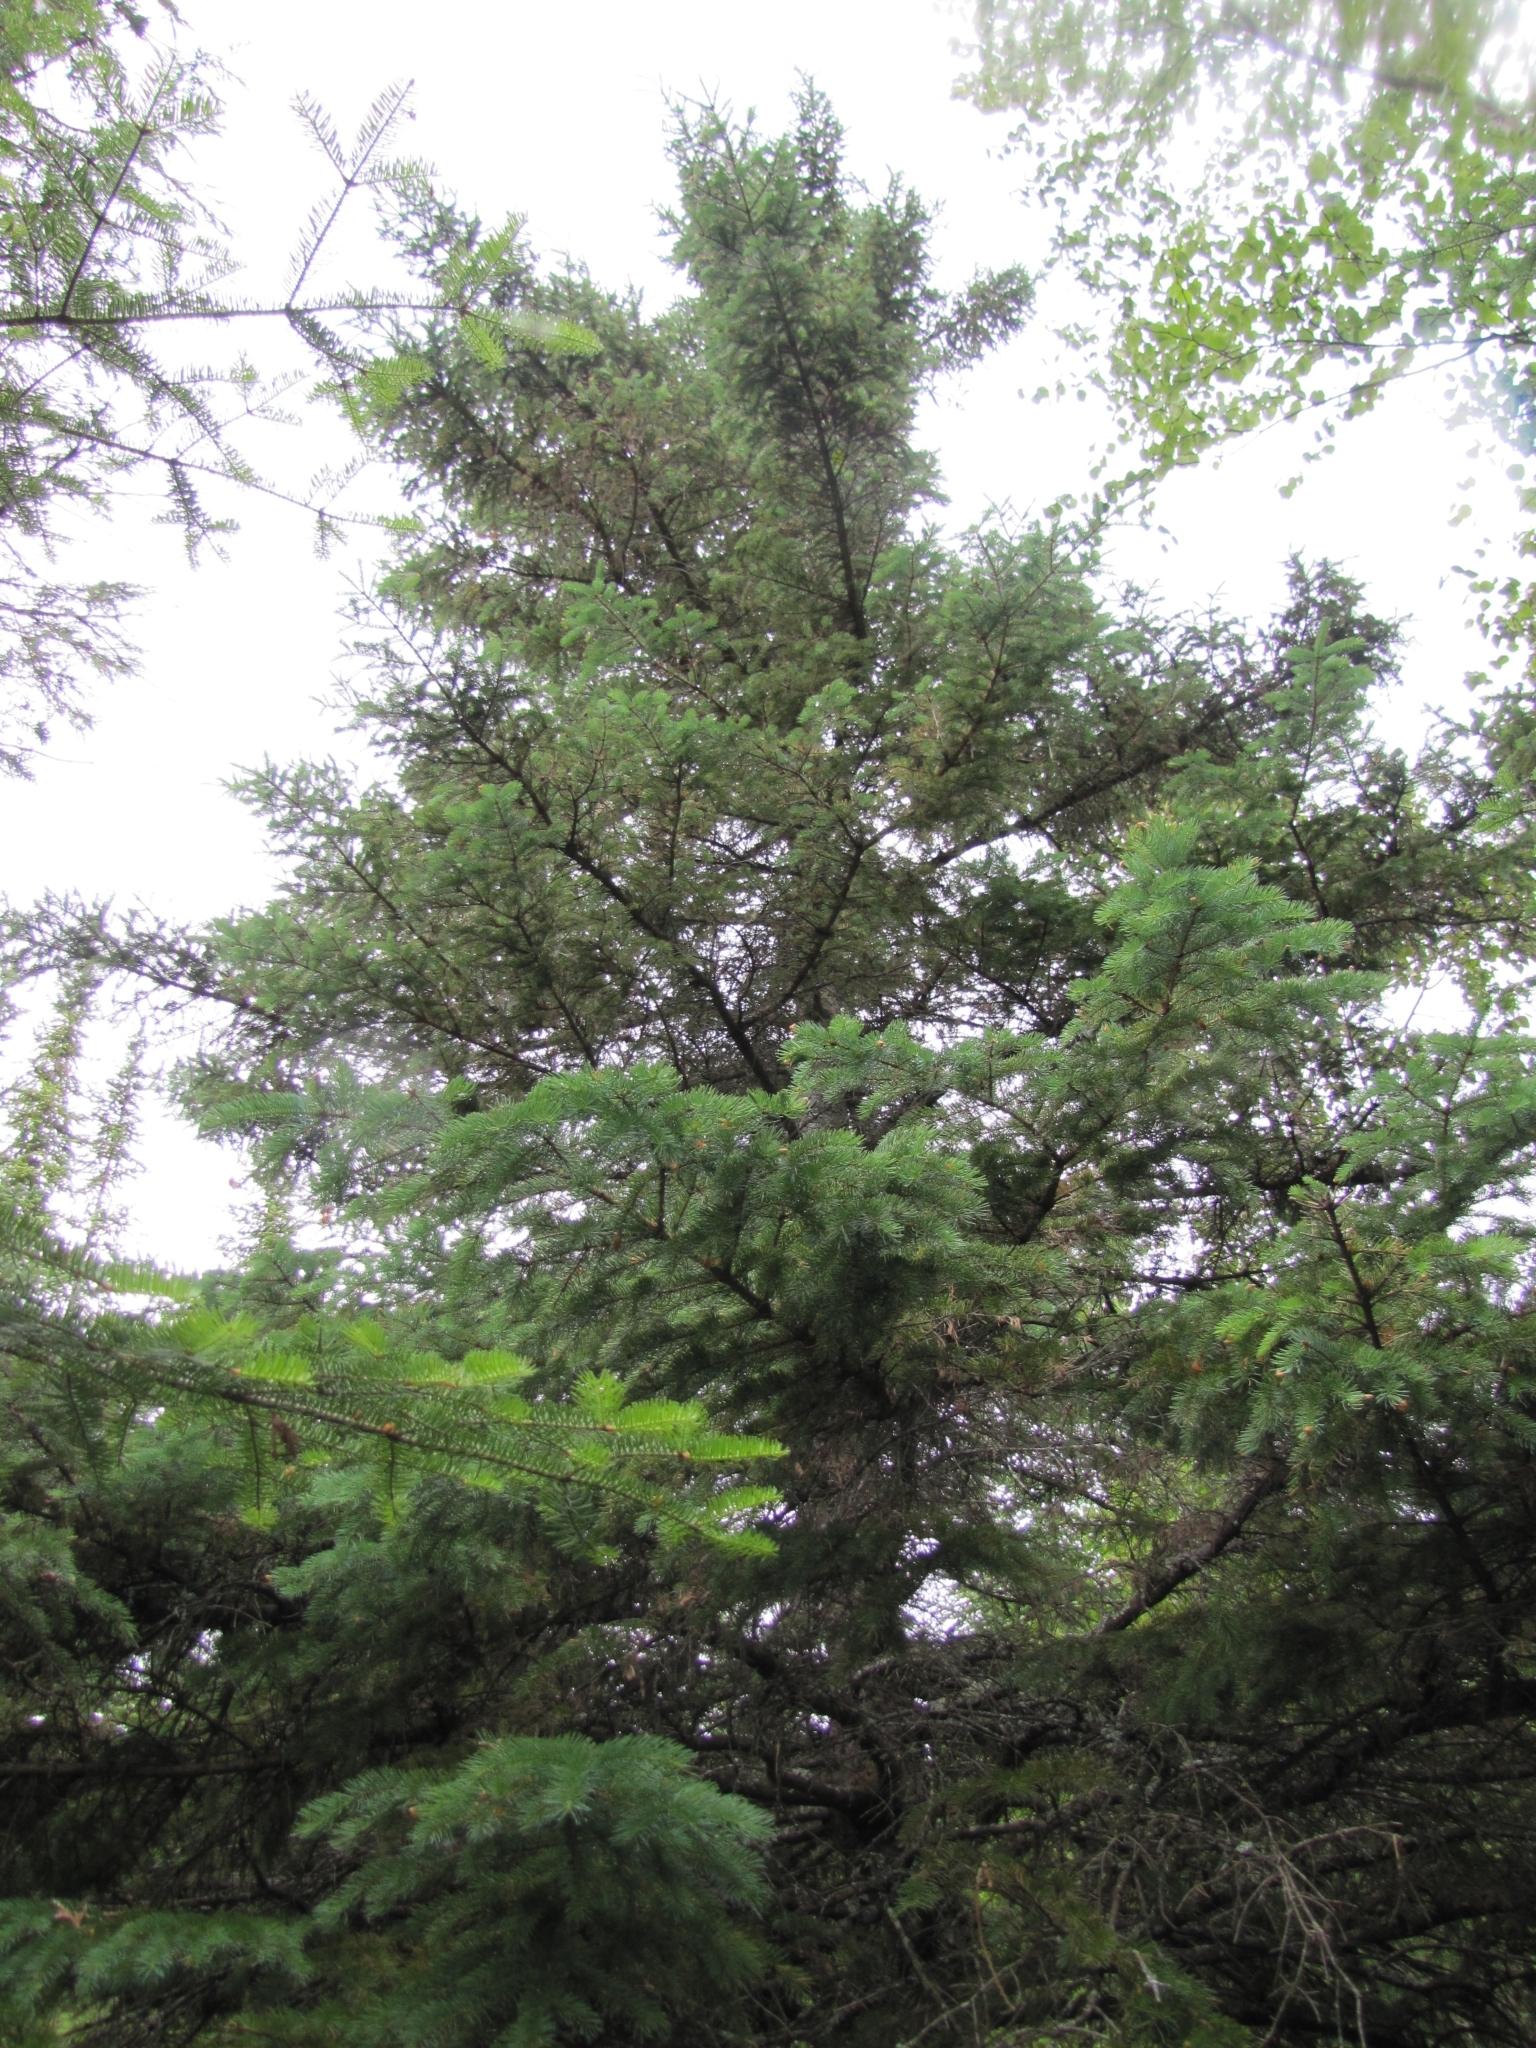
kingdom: Plantae
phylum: Tracheophyta
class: Pinopsida
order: Pinales
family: Pinaceae
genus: Picea
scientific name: Picea mariana
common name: Black spruce
